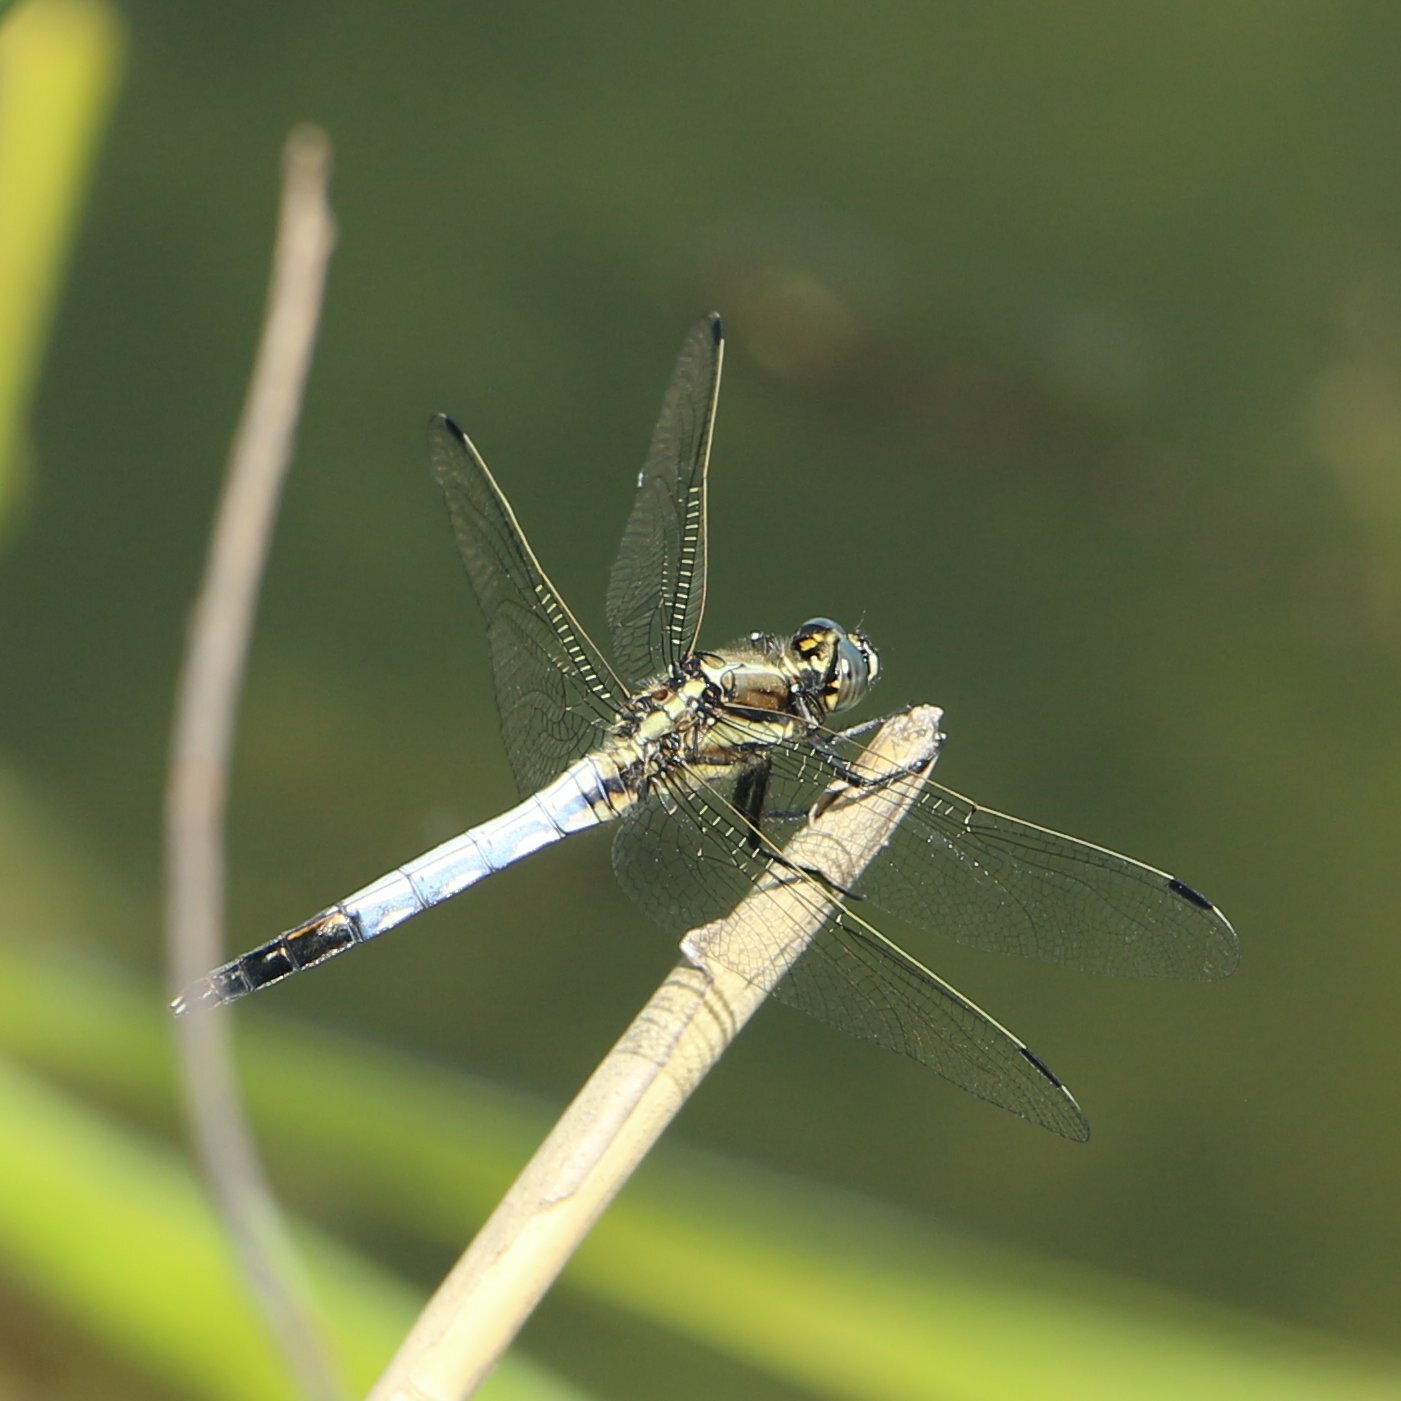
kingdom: Animalia
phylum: Arthropoda
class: Insecta
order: Odonata
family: Libellulidae
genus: Orthetrum
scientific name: Orthetrum albistylum
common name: White-tailed skimmer
